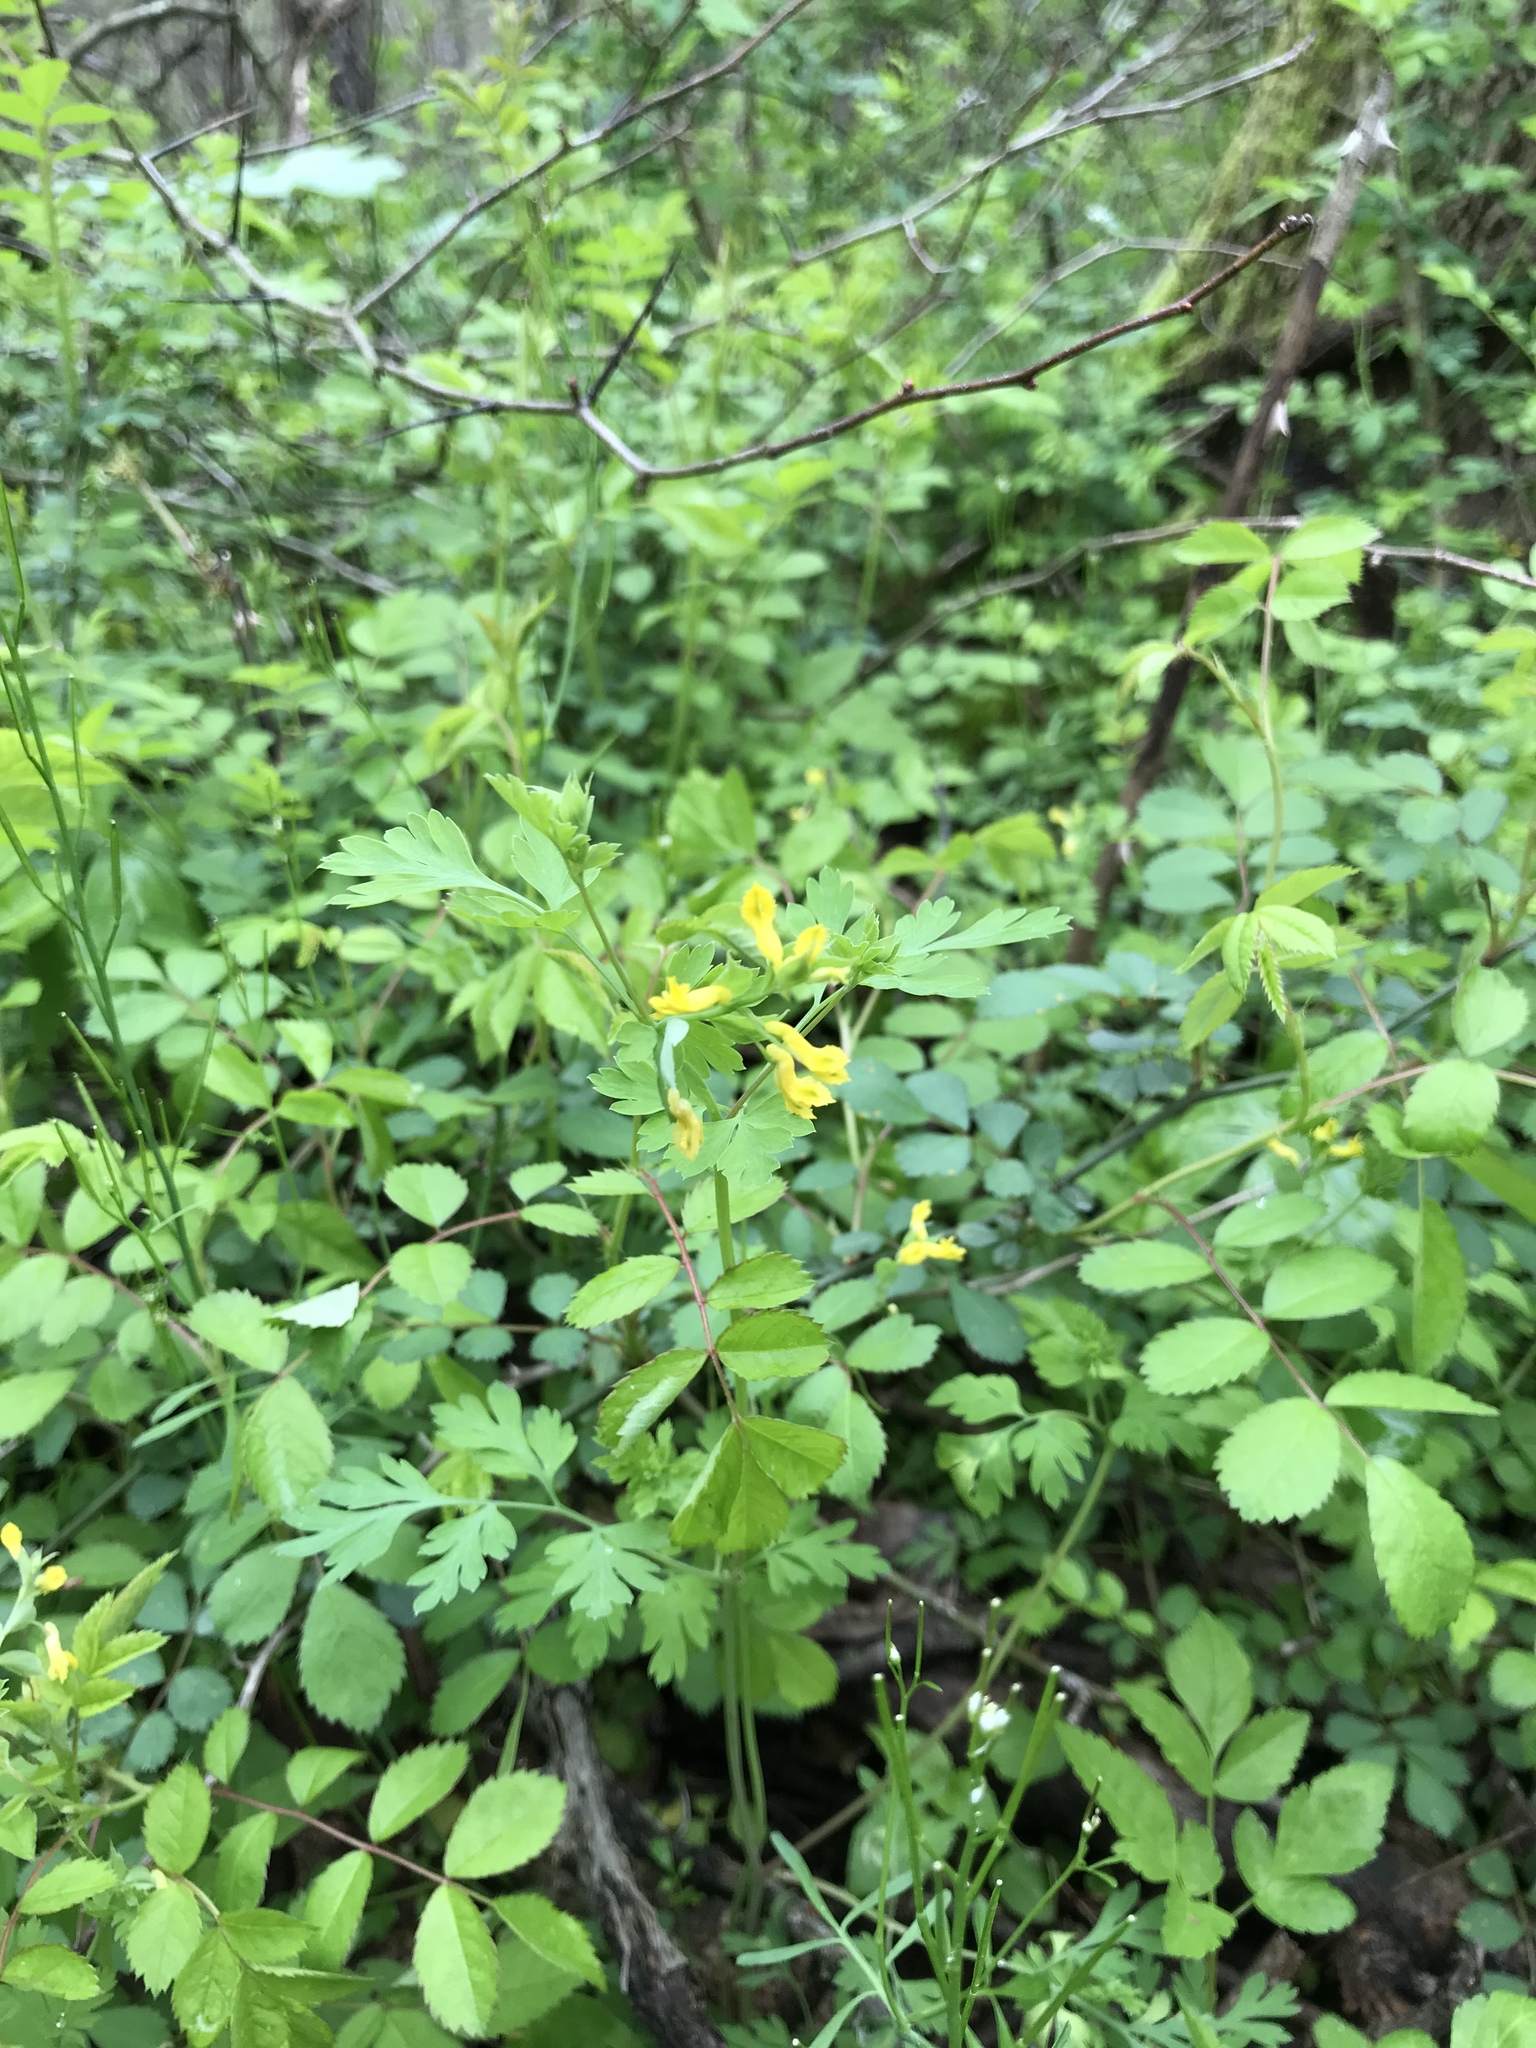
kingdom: Plantae
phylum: Tracheophyta
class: Magnoliopsida
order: Ranunculales
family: Papaveraceae
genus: Corydalis
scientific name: Corydalis flavula
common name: Yellow corydalis
